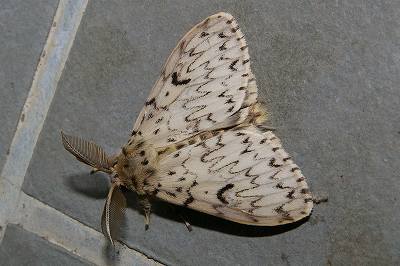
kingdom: Animalia
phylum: Arthropoda
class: Insecta
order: Lepidoptera
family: Erebidae
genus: Lymantria
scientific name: Lymantria minomonis
